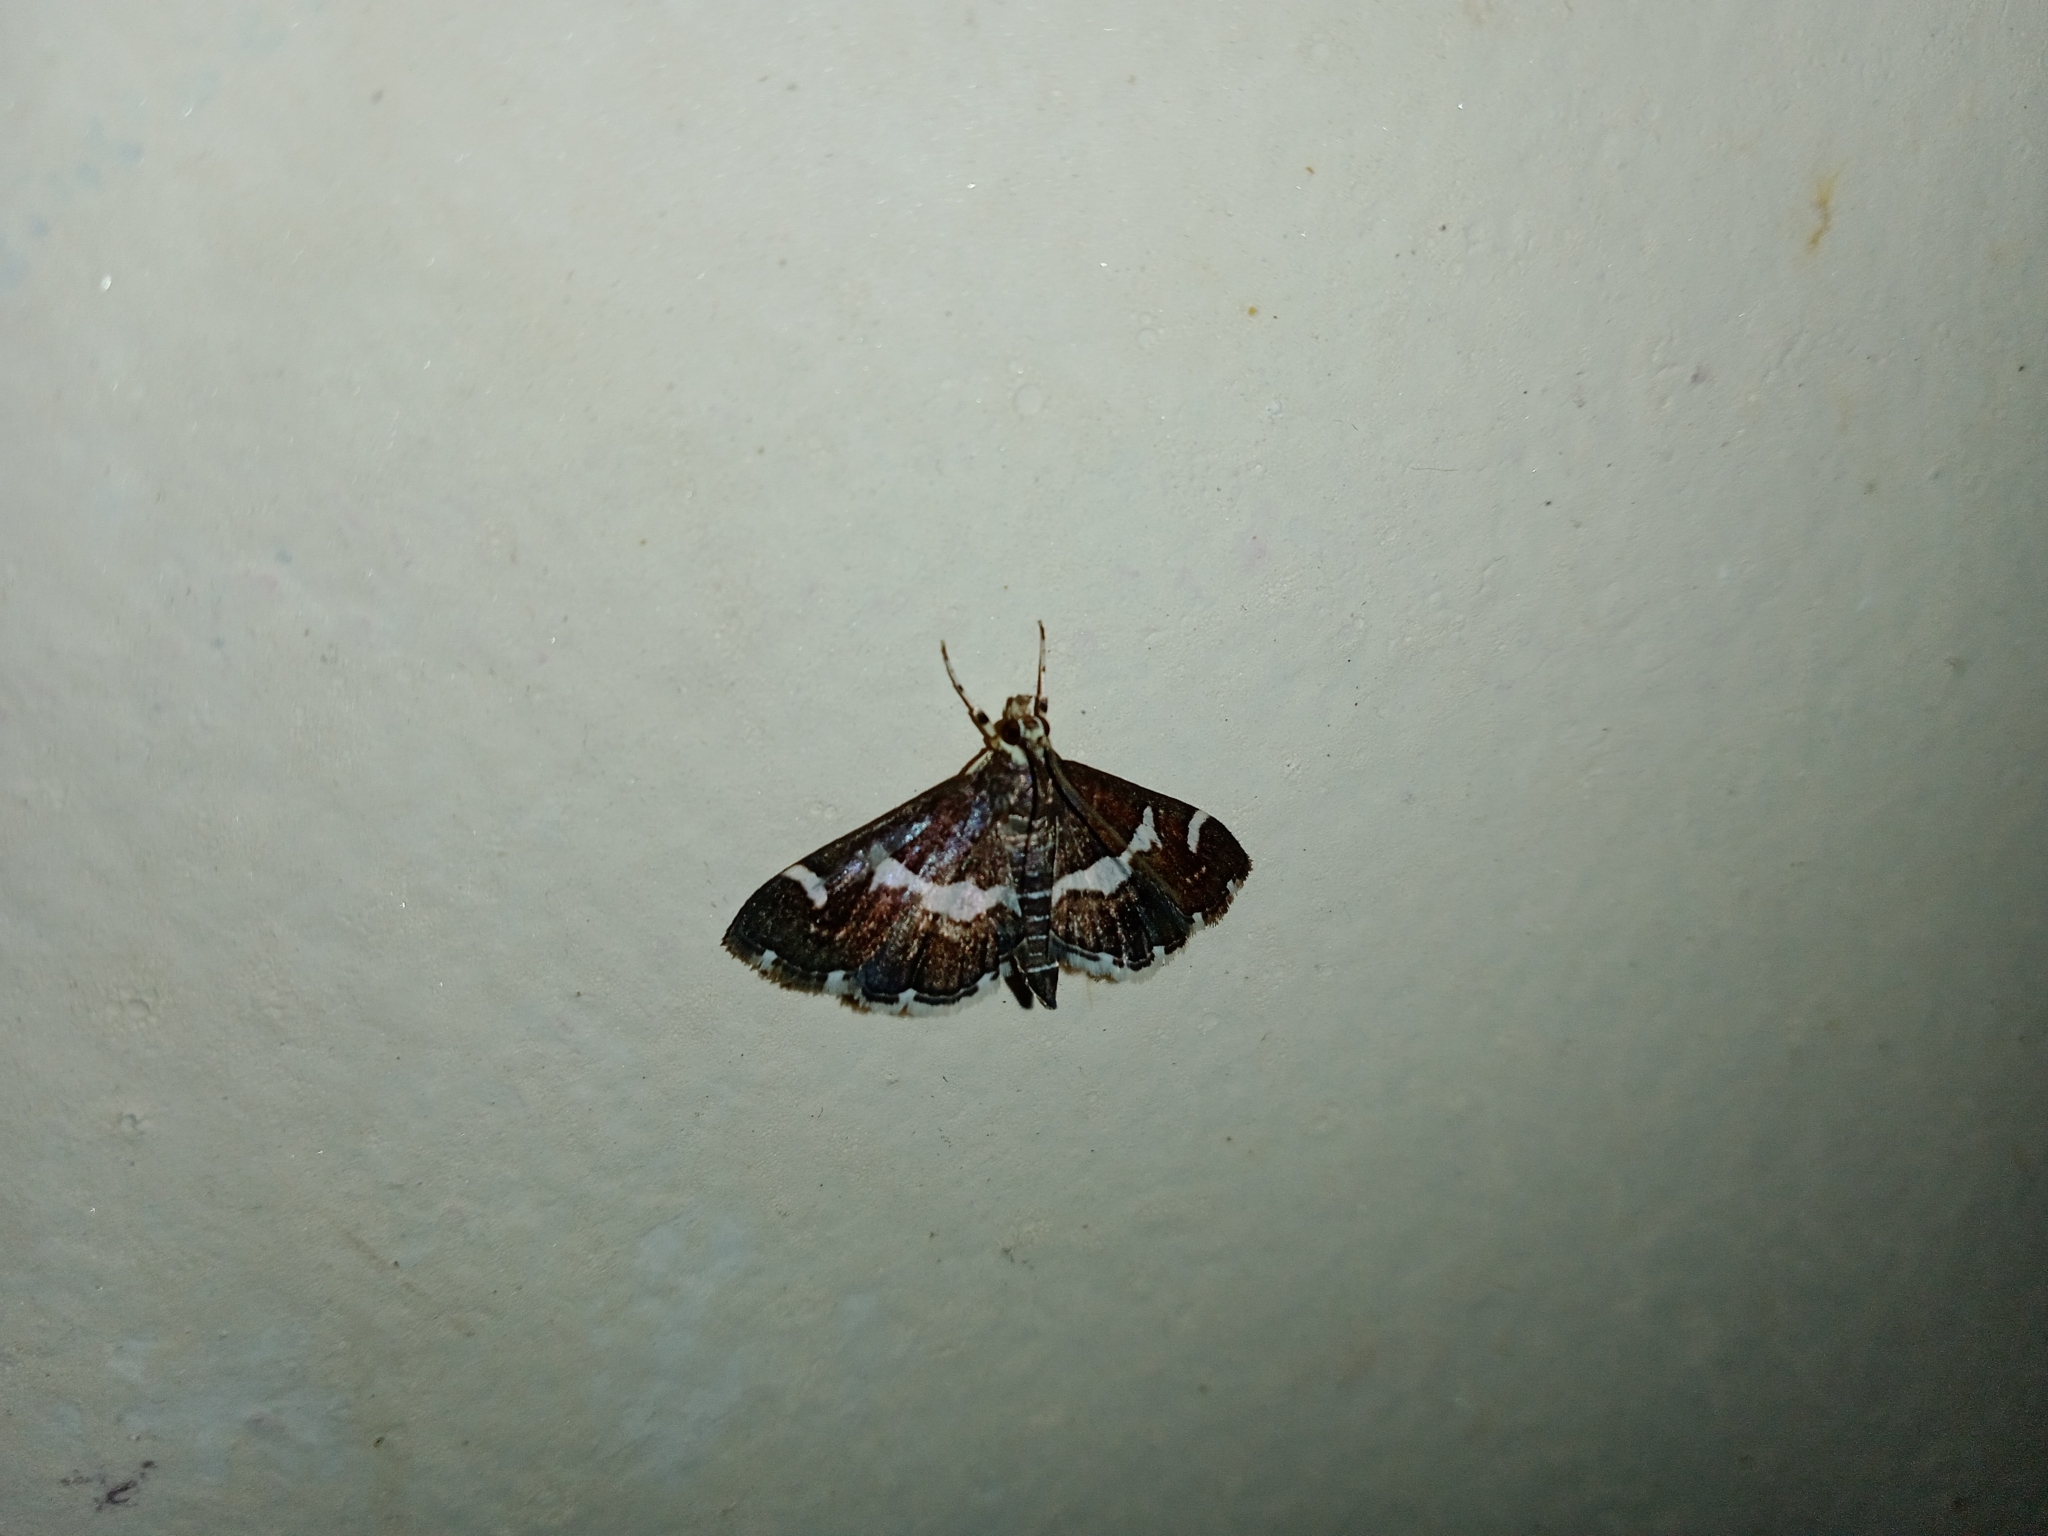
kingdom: Animalia
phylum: Arthropoda
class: Insecta
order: Lepidoptera
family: Crambidae
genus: Spoladea
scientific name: Spoladea recurvalis
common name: Beet webworm moth
